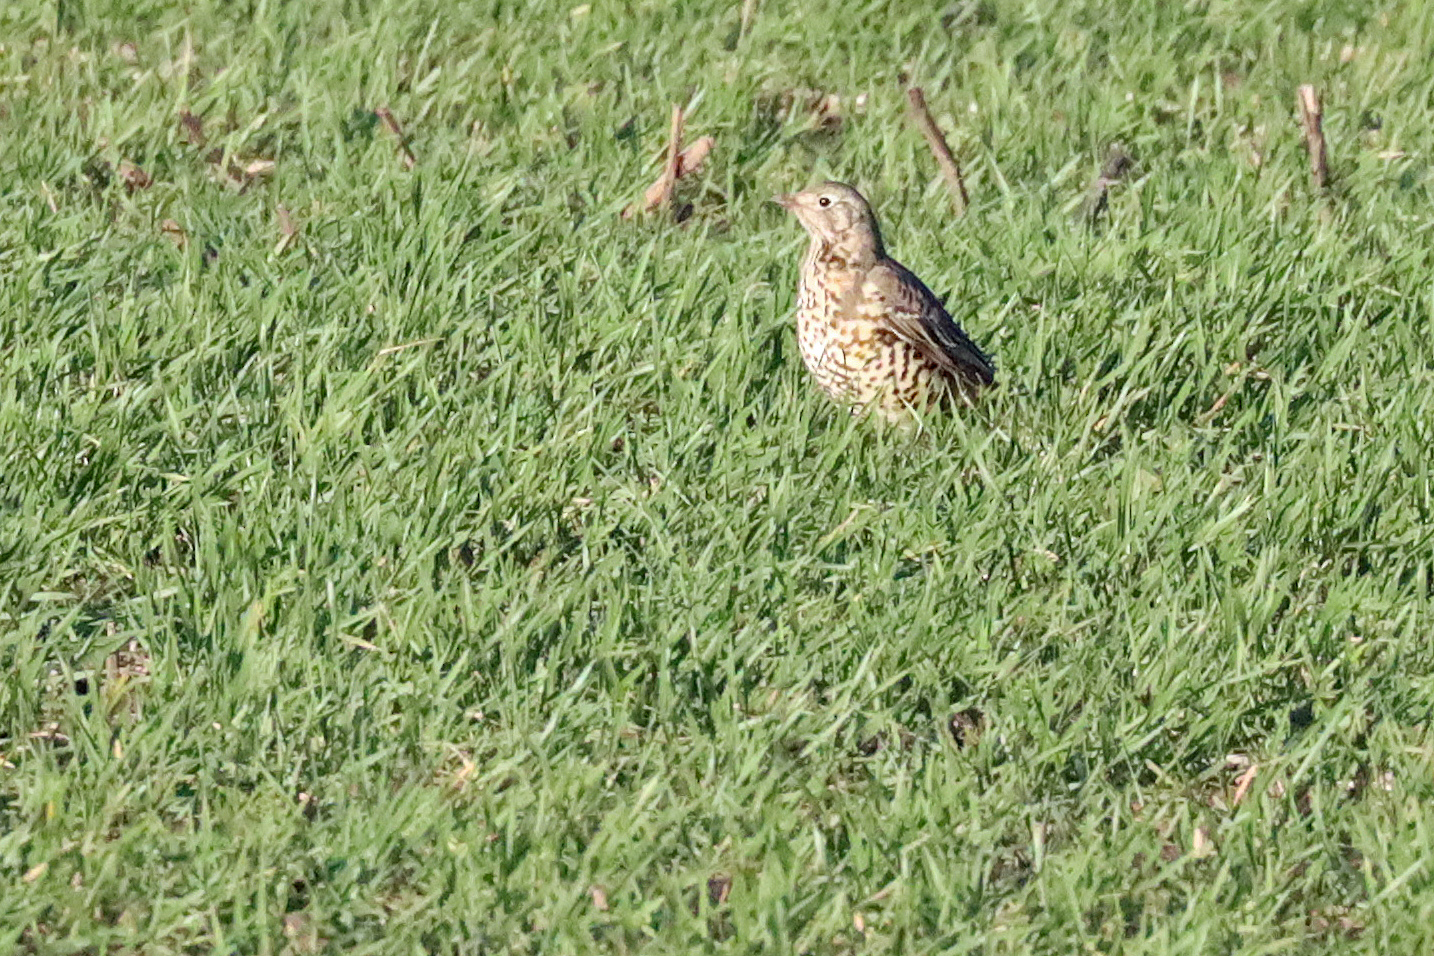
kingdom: Animalia
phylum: Chordata
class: Aves
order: Passeriformes
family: Turdidae
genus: Turdus
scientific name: Turdus viscivorus
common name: Mistle thrush
